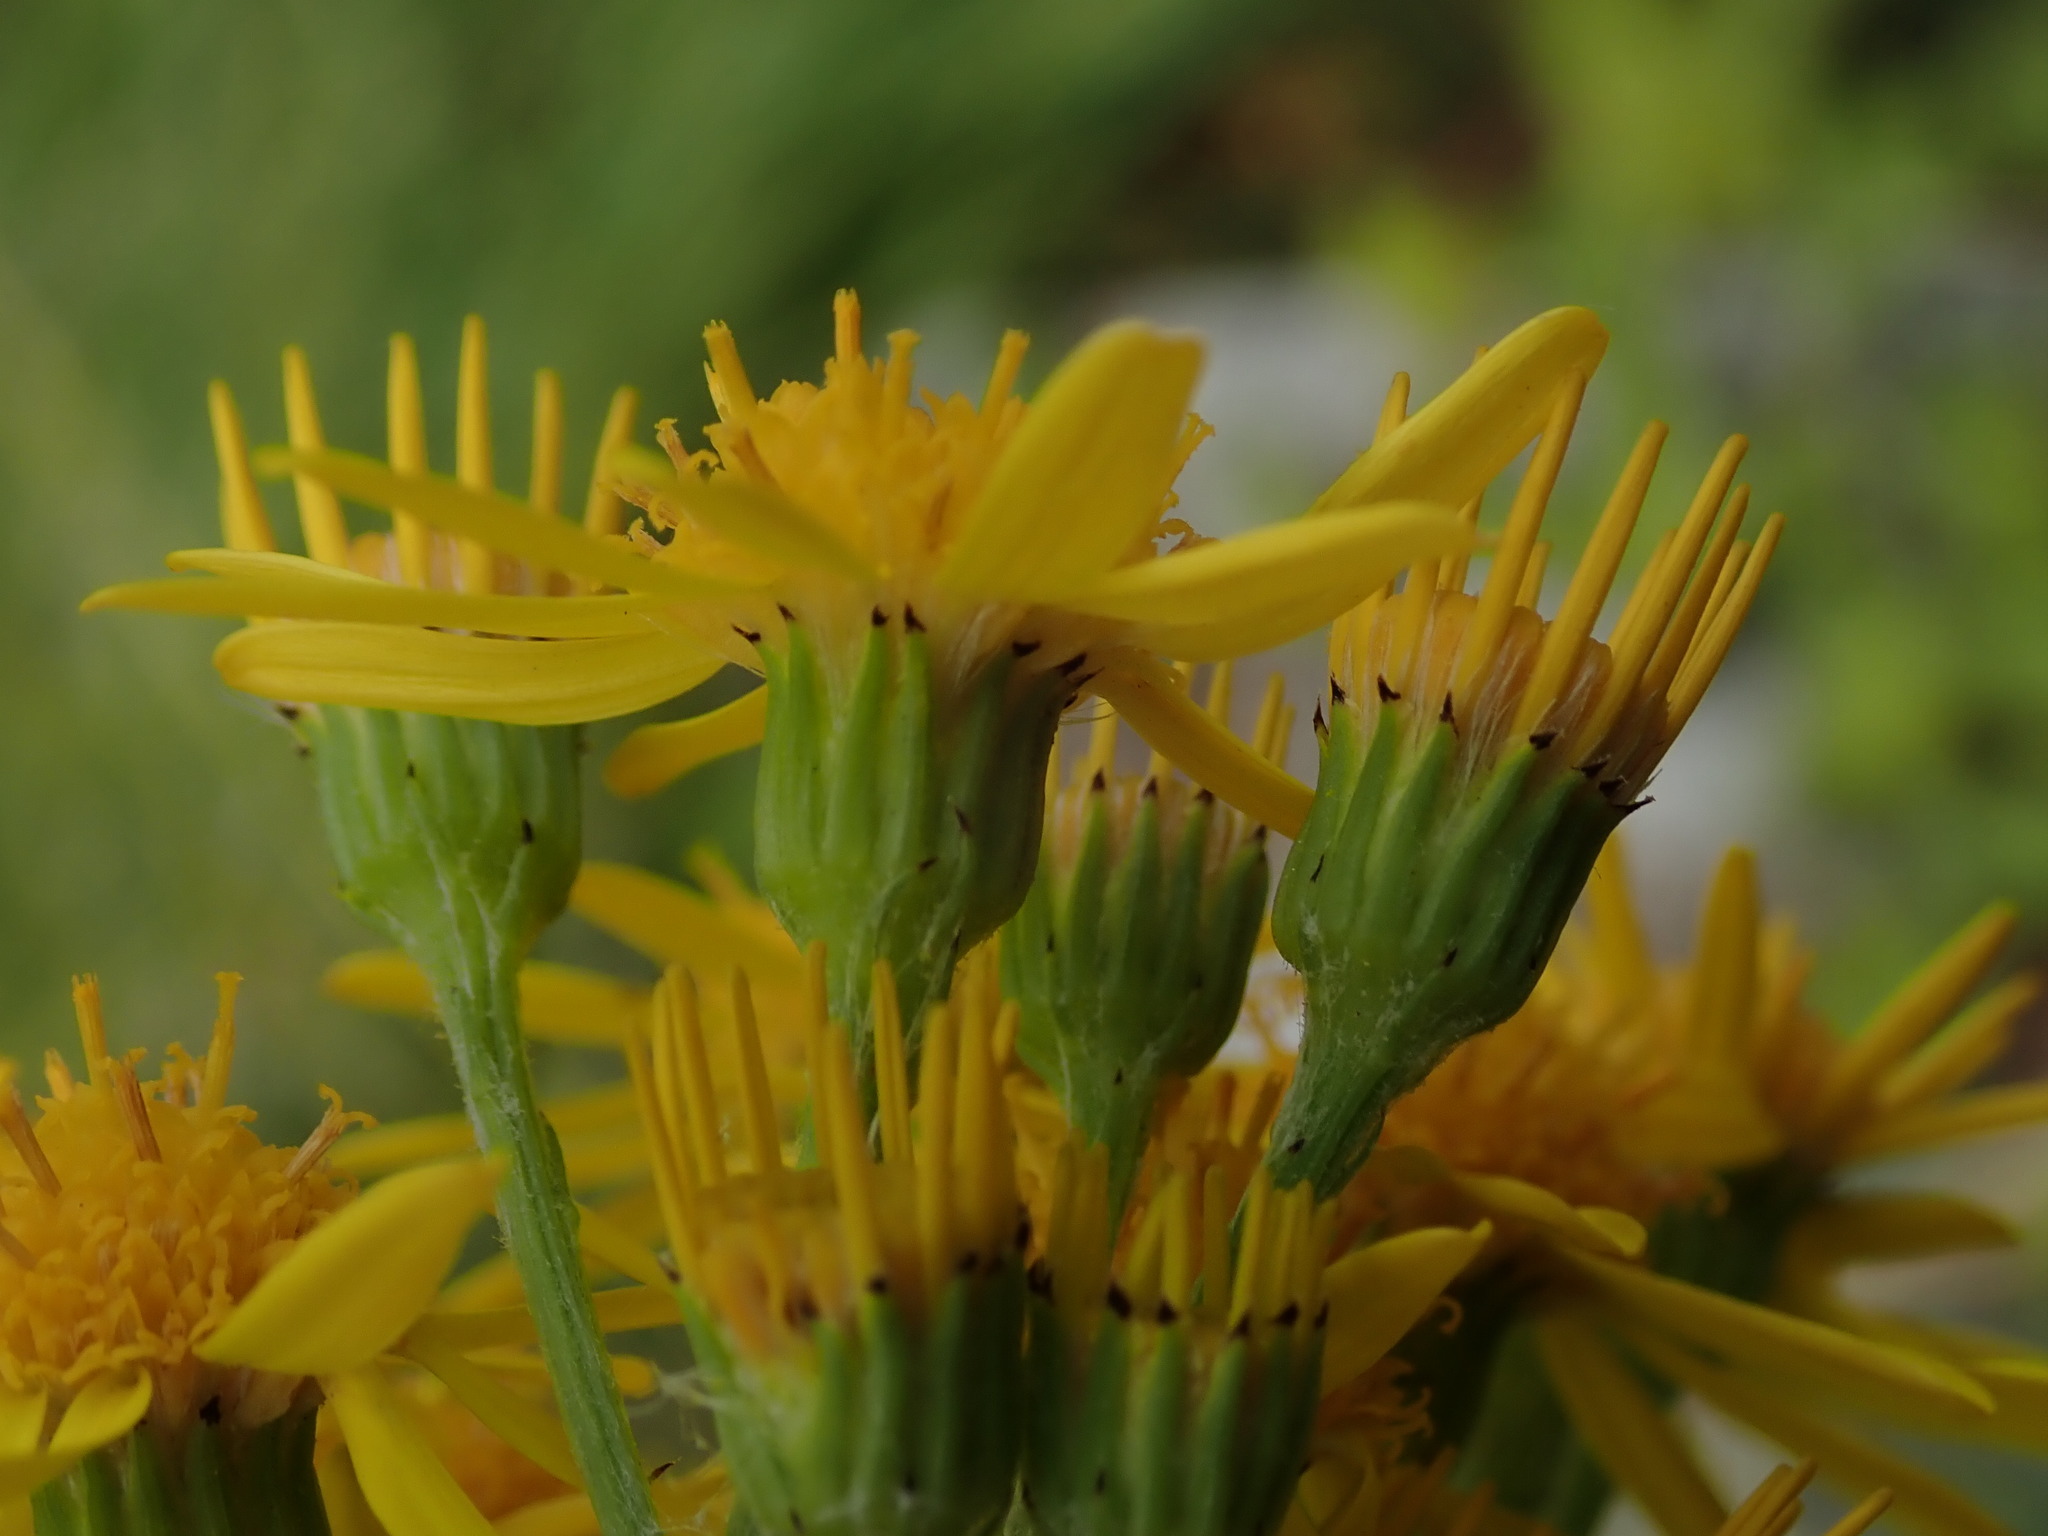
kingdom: Plantae
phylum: Tracheophyta
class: Magnoliopsida
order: Asterales
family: Asteraceae
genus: Jacobaea
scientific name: Jacobaea vulgaris
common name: Stinking willie
